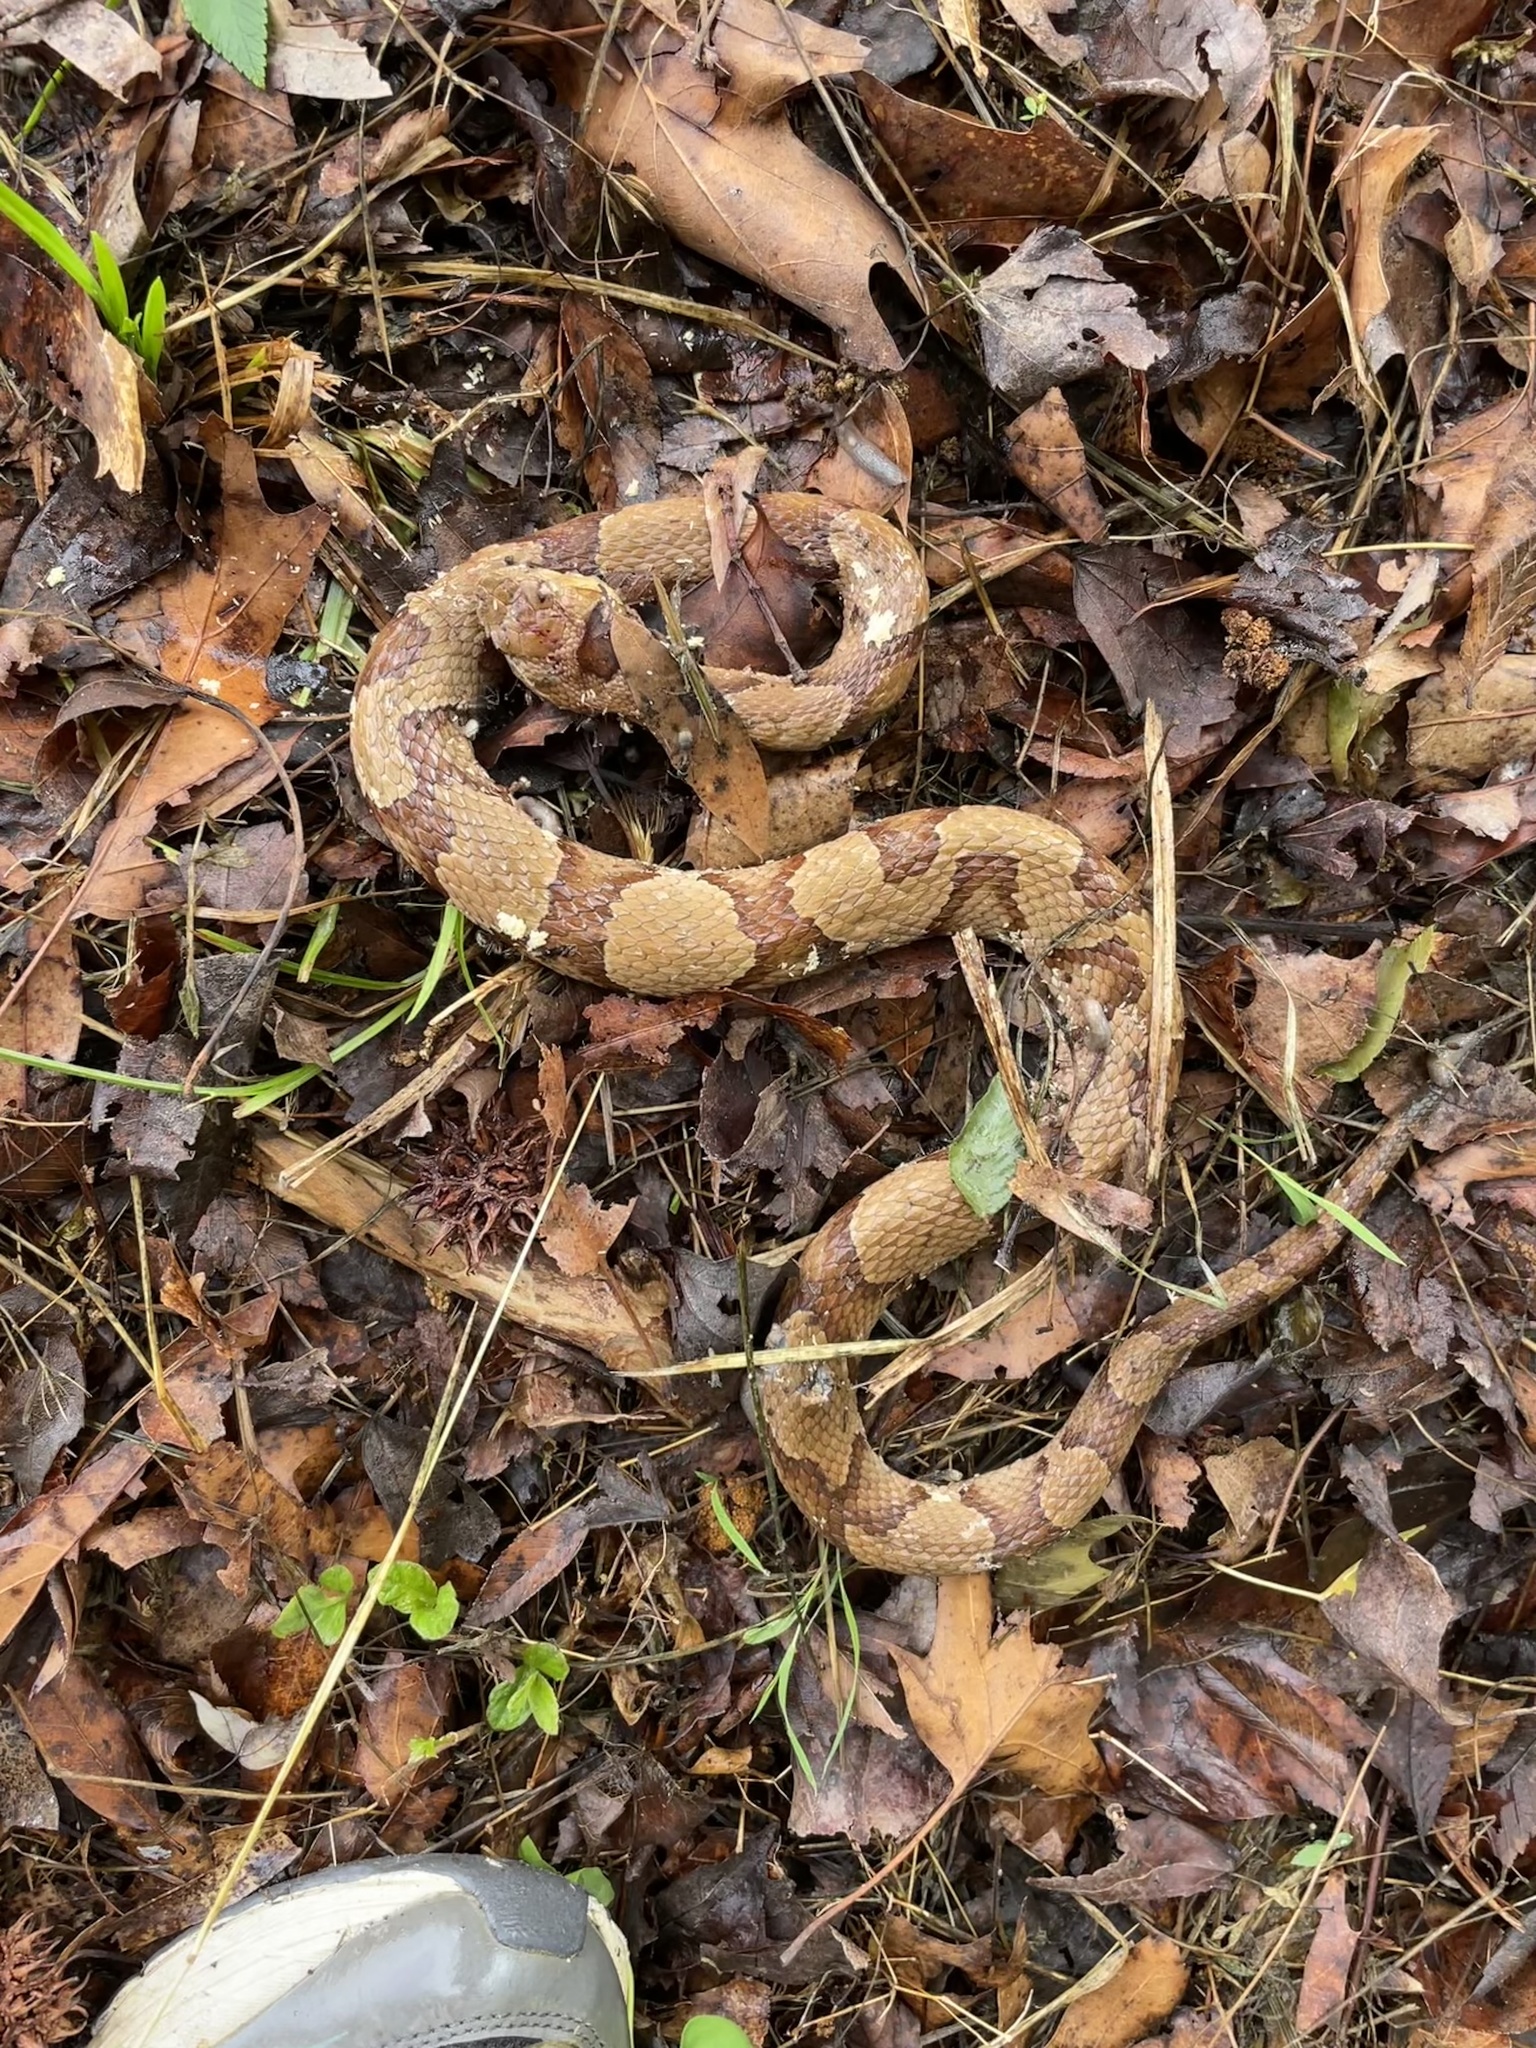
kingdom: Animalia
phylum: Chordata
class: Squamata
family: Viperidae
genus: Agkistrodon
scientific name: Agkistrodon contortrix
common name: Northern copperhead
